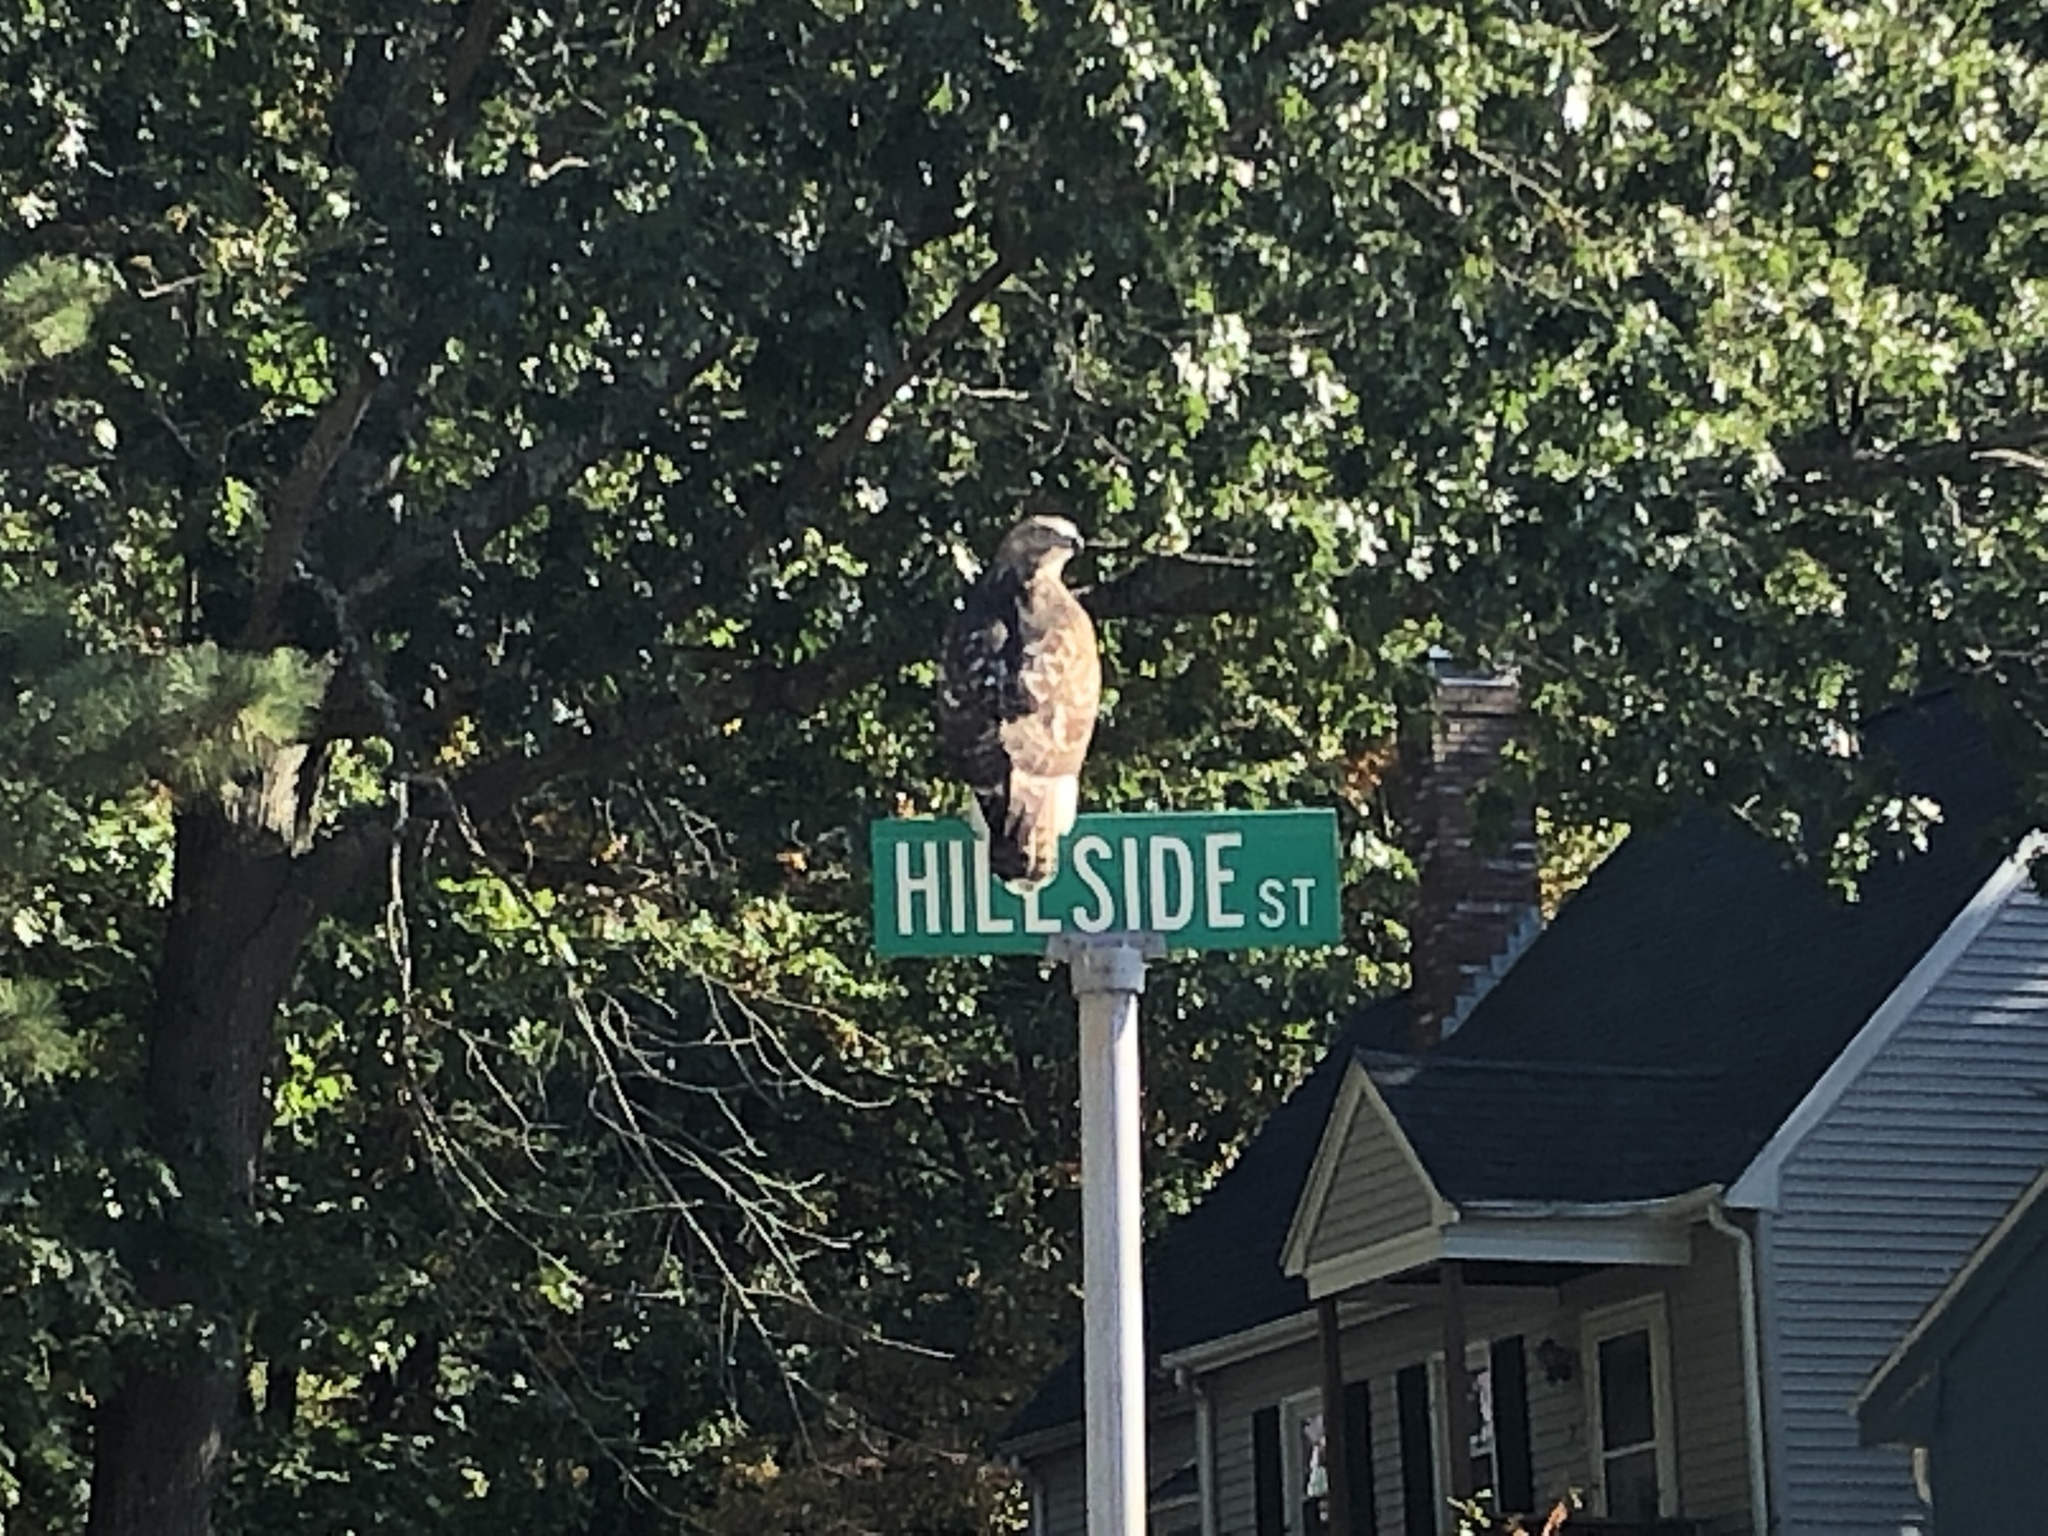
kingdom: Animalia
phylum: Chordata
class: Aves
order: Accipitriformes
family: Accipitridae
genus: Buteo
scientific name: Buteo jamaicensis
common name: Red-tailed hawk
